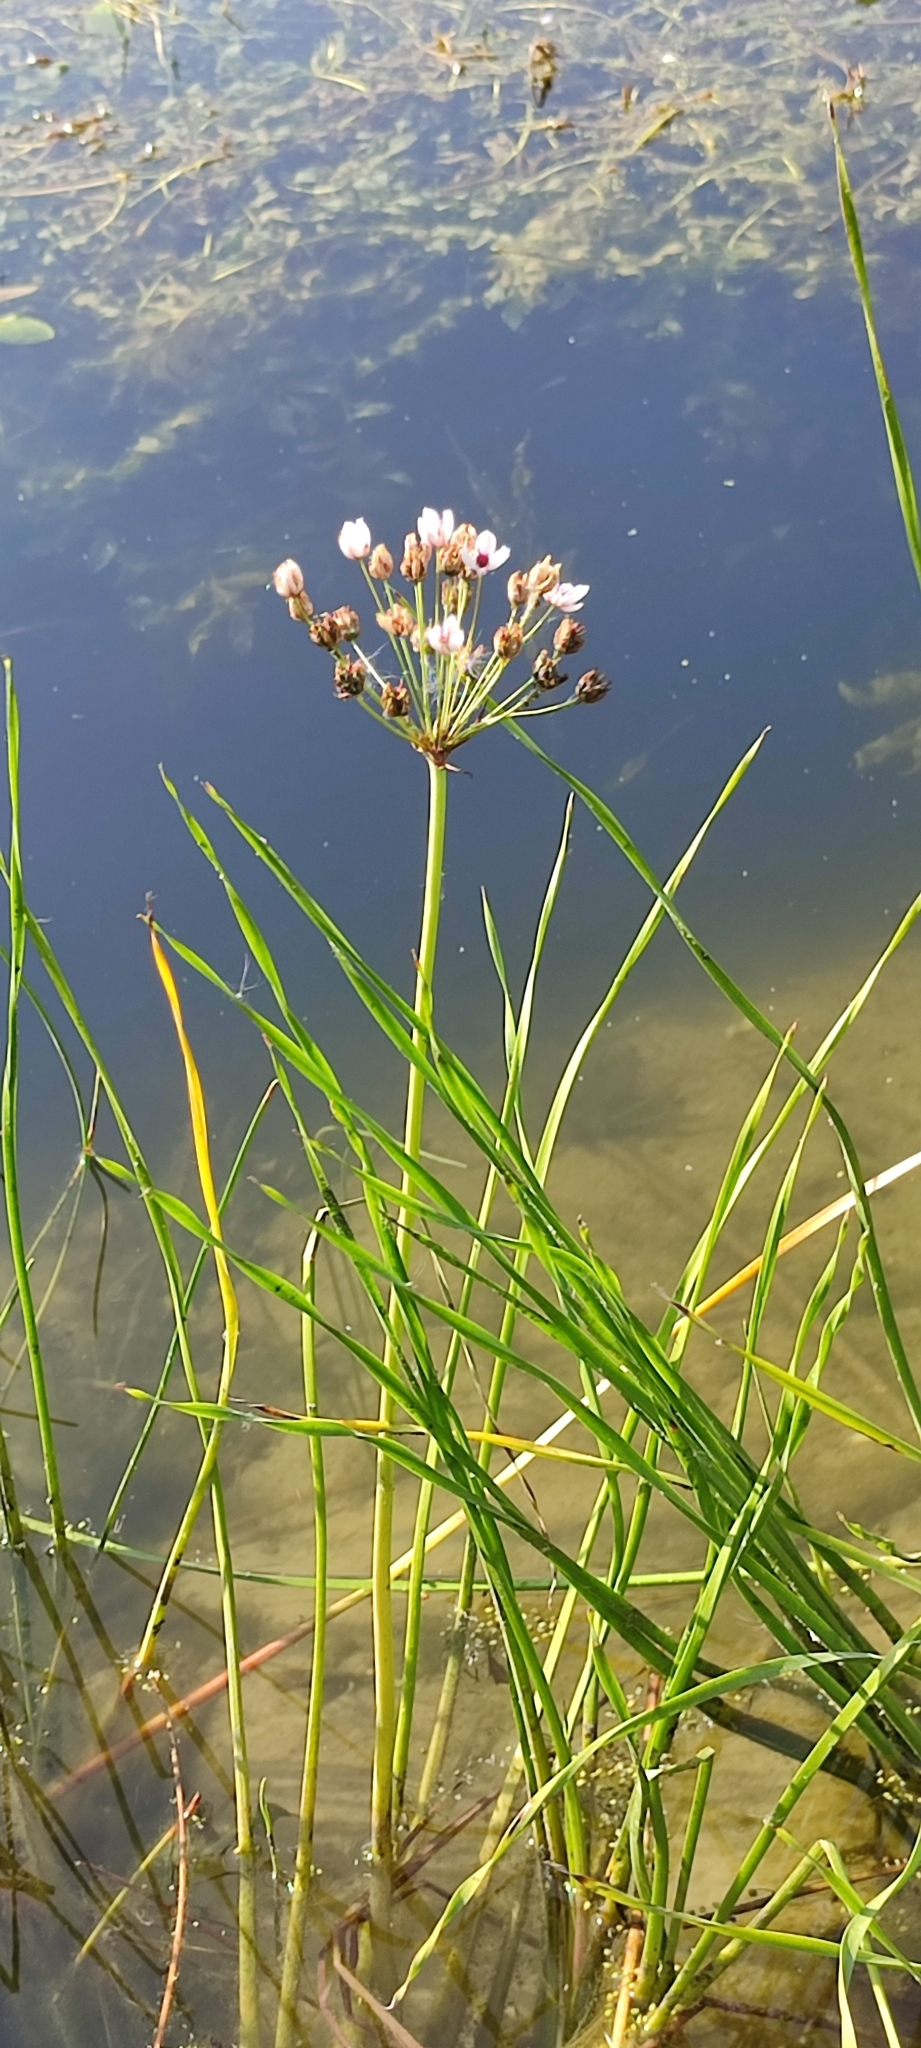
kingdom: Plantae
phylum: Tracheophyta
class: Liliopsida
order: Alismatales
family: Butomaceae
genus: Butomus
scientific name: Butomus umbellatus
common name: Flowering-rush
